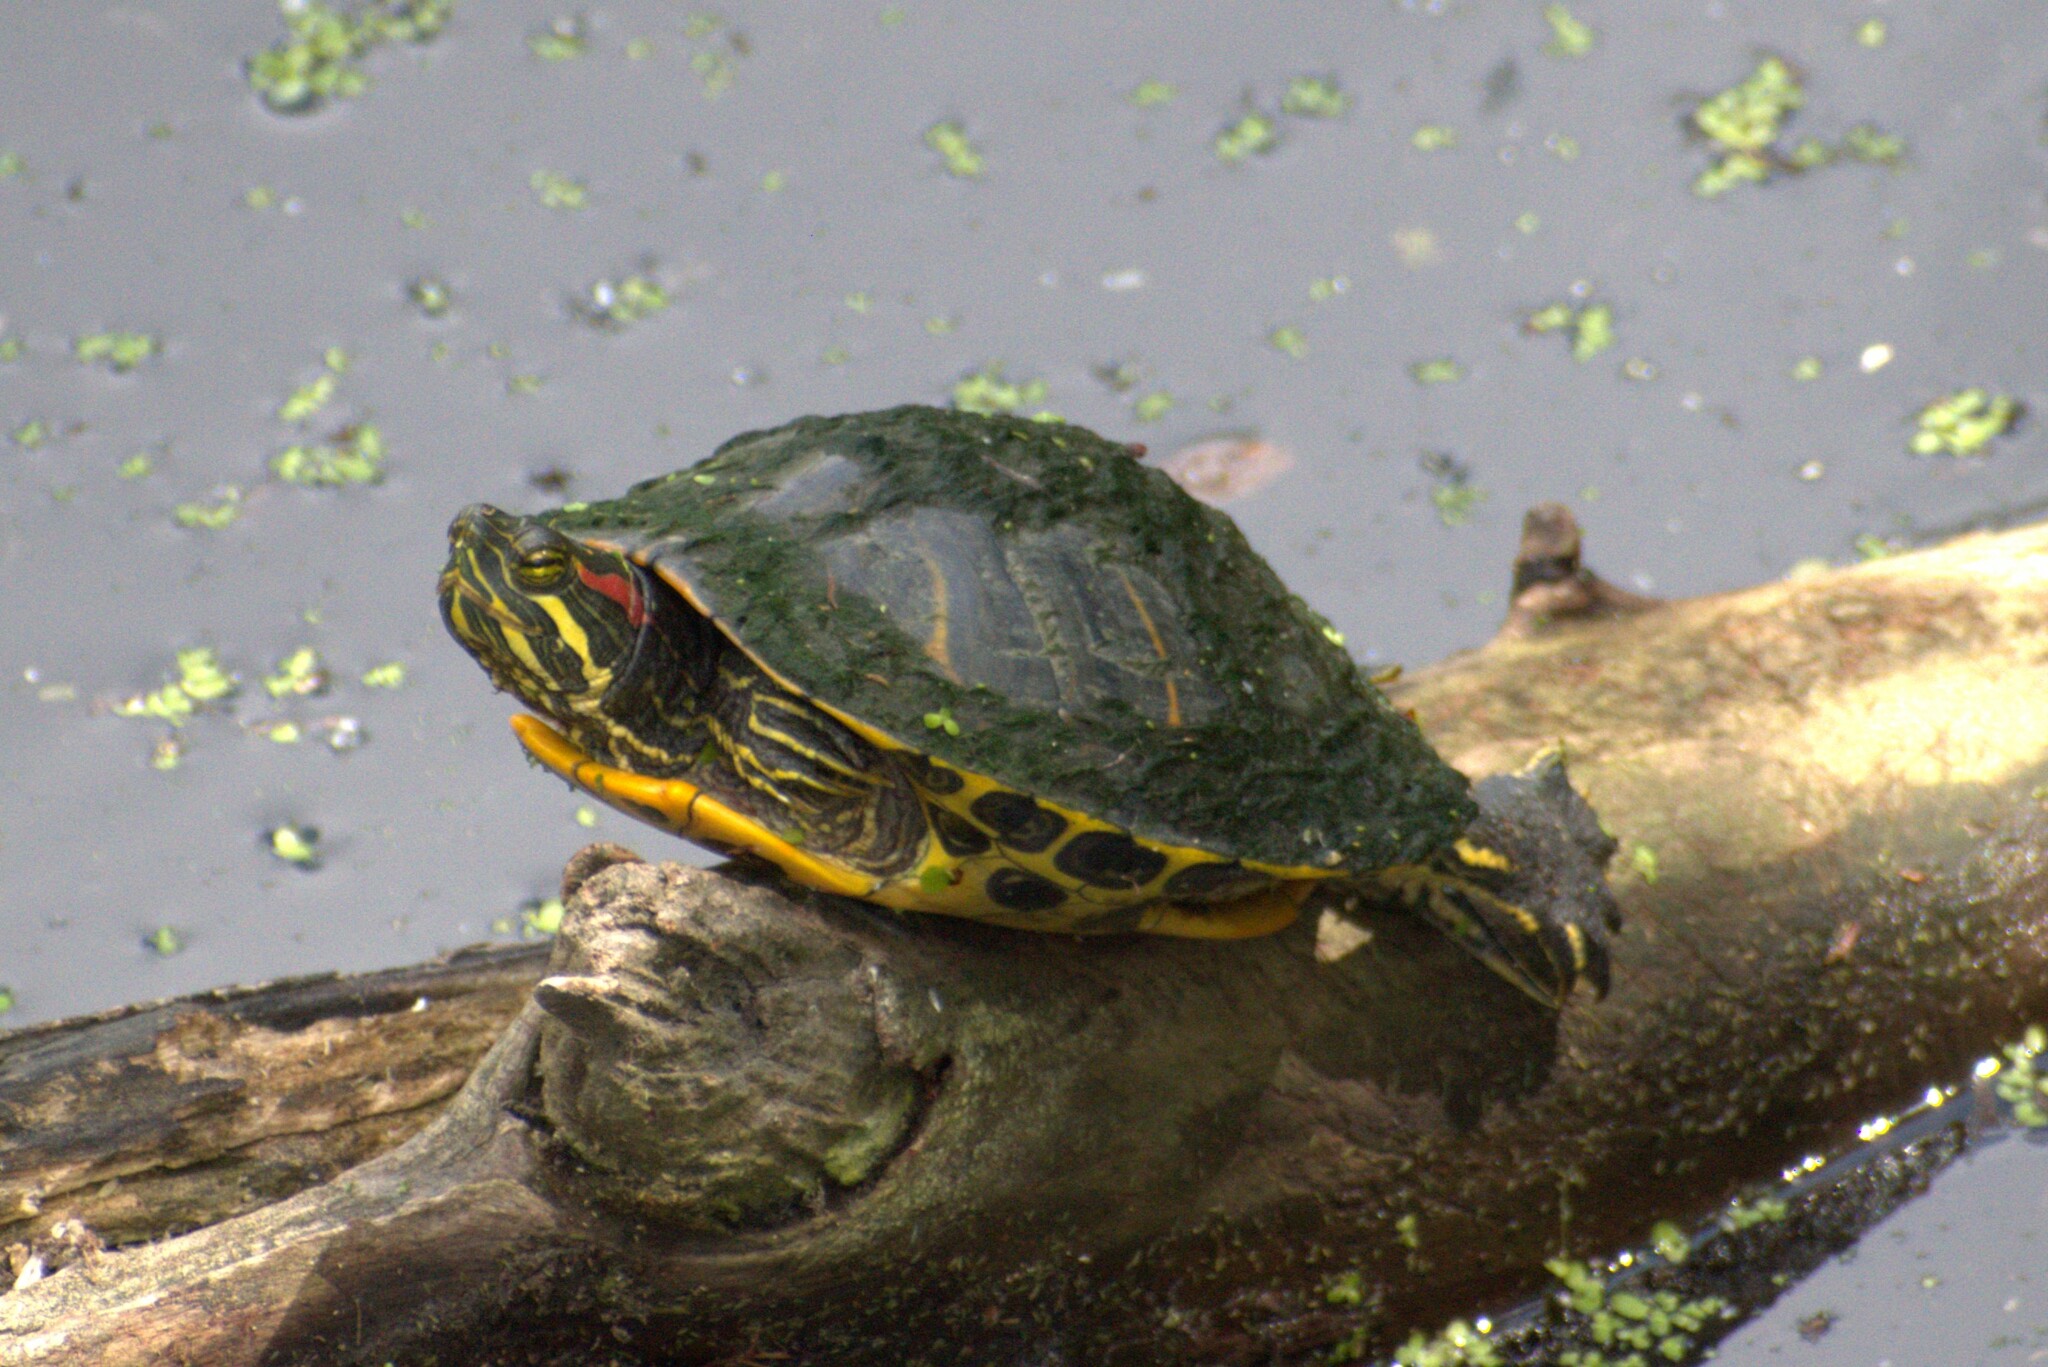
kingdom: Animalia
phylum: Chordata
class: Testudines
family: Emydidae
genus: Trachemys
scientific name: Trachemys scripta
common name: Slider
